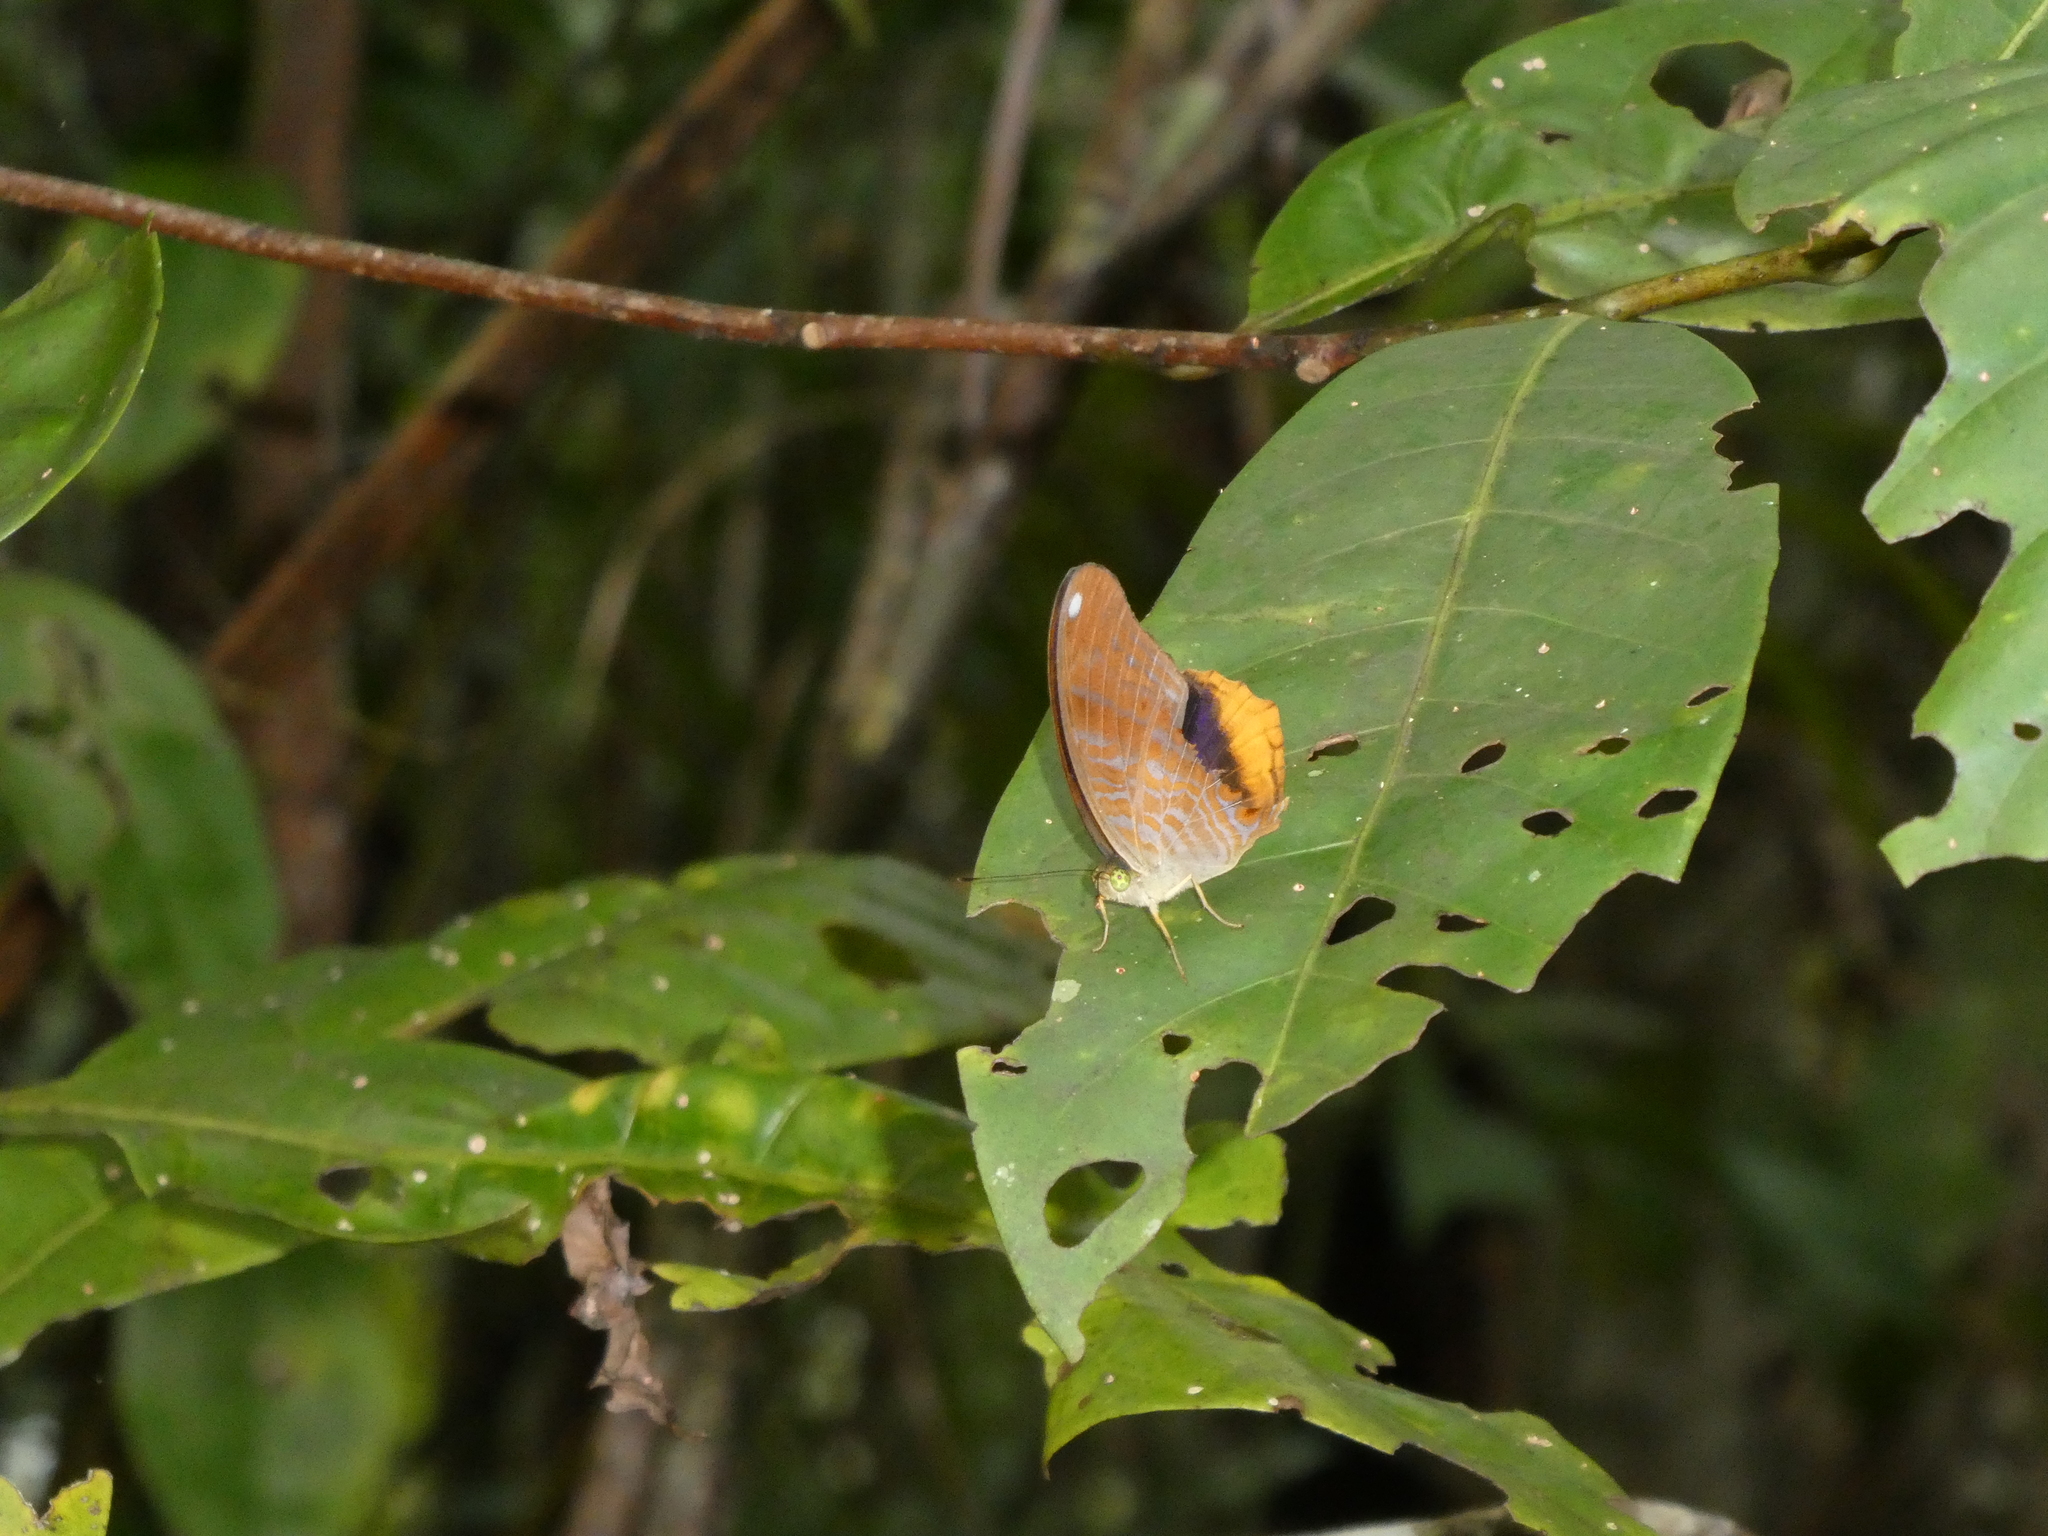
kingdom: Animalia
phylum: Arthropoda
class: Insecta
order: Lepidoptera
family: Nymphalidae
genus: Terinos
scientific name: Terinos terpander
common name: Royal assyrian
